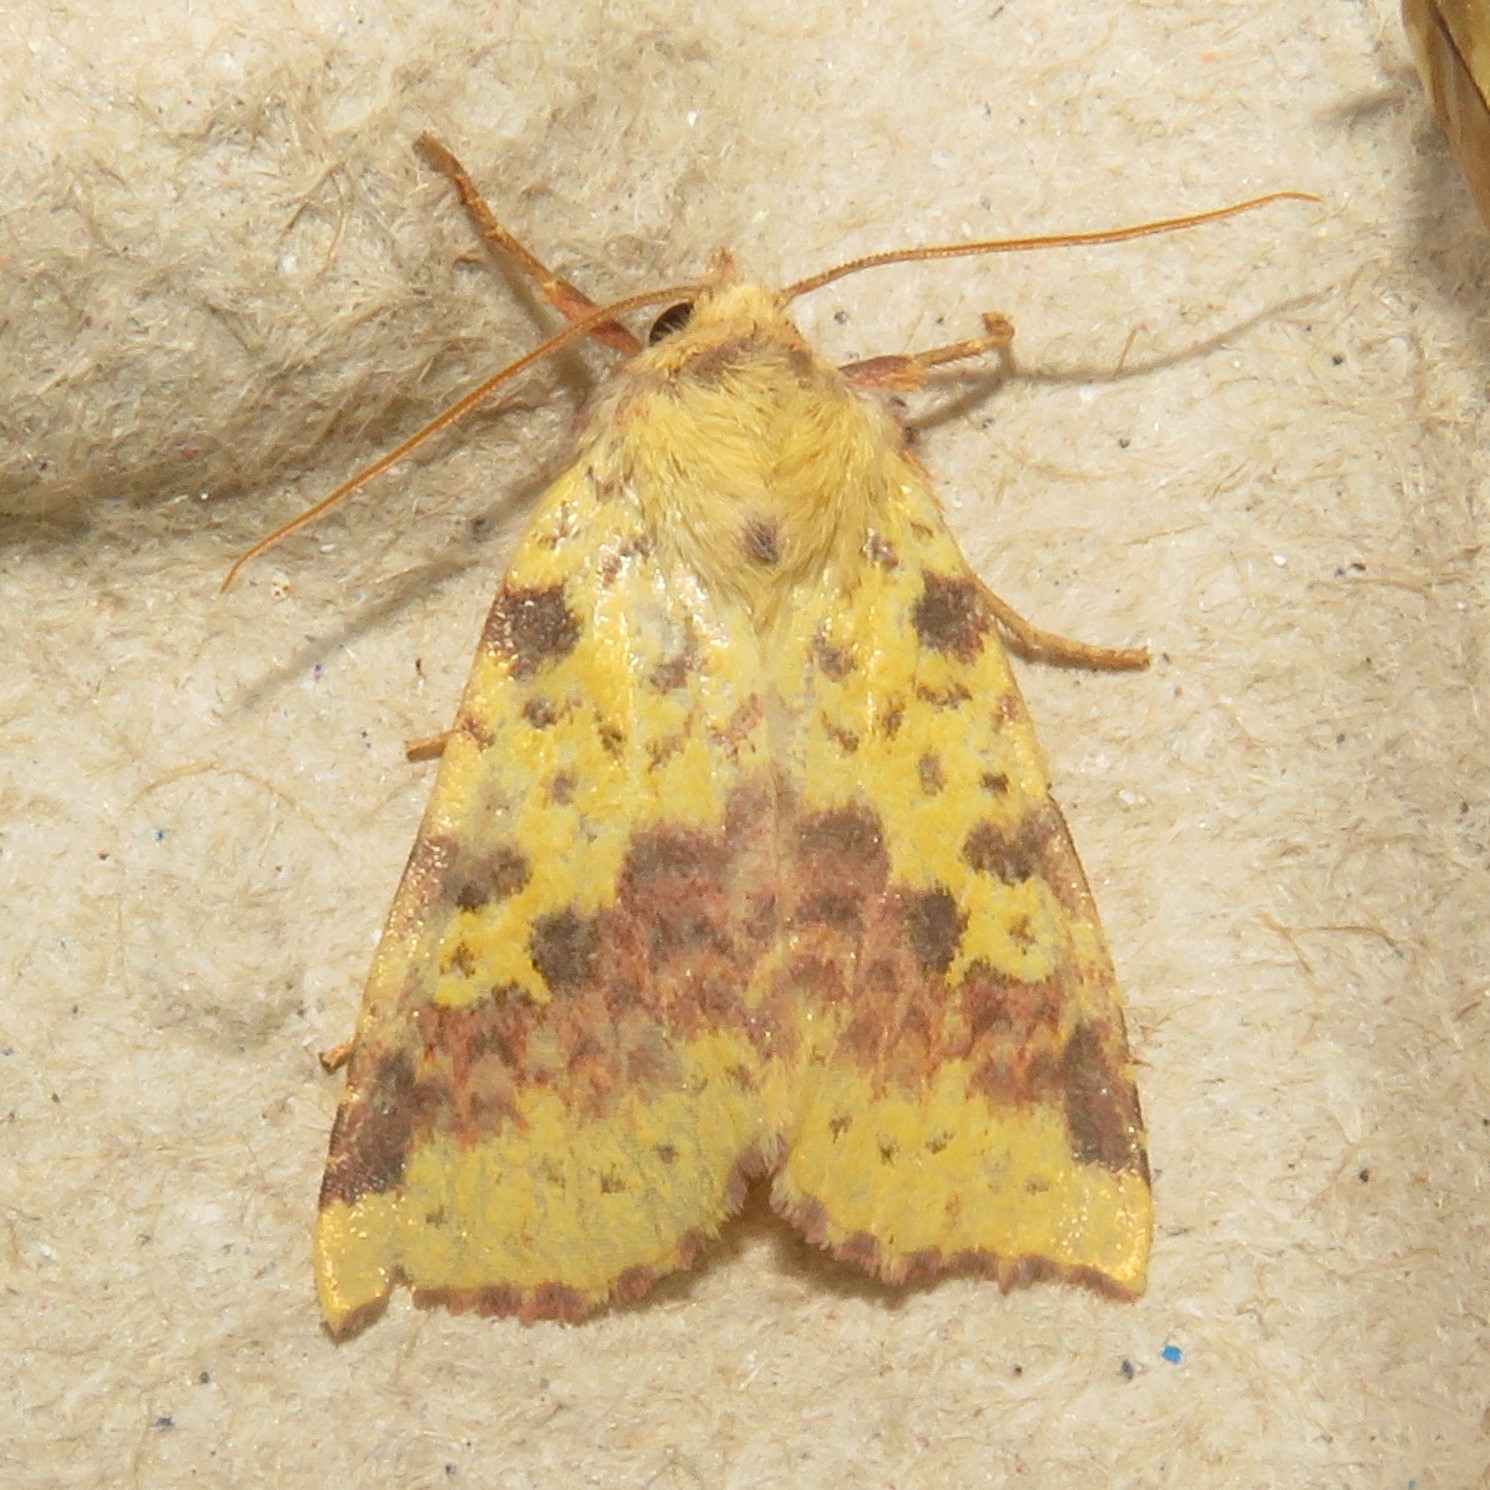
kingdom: Animalia
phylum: Arthropoda
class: Insecta
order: Lepidoptera
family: Noctuidae
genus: Xanthia
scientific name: Xanthia tatago
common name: Pink-banded sallow
